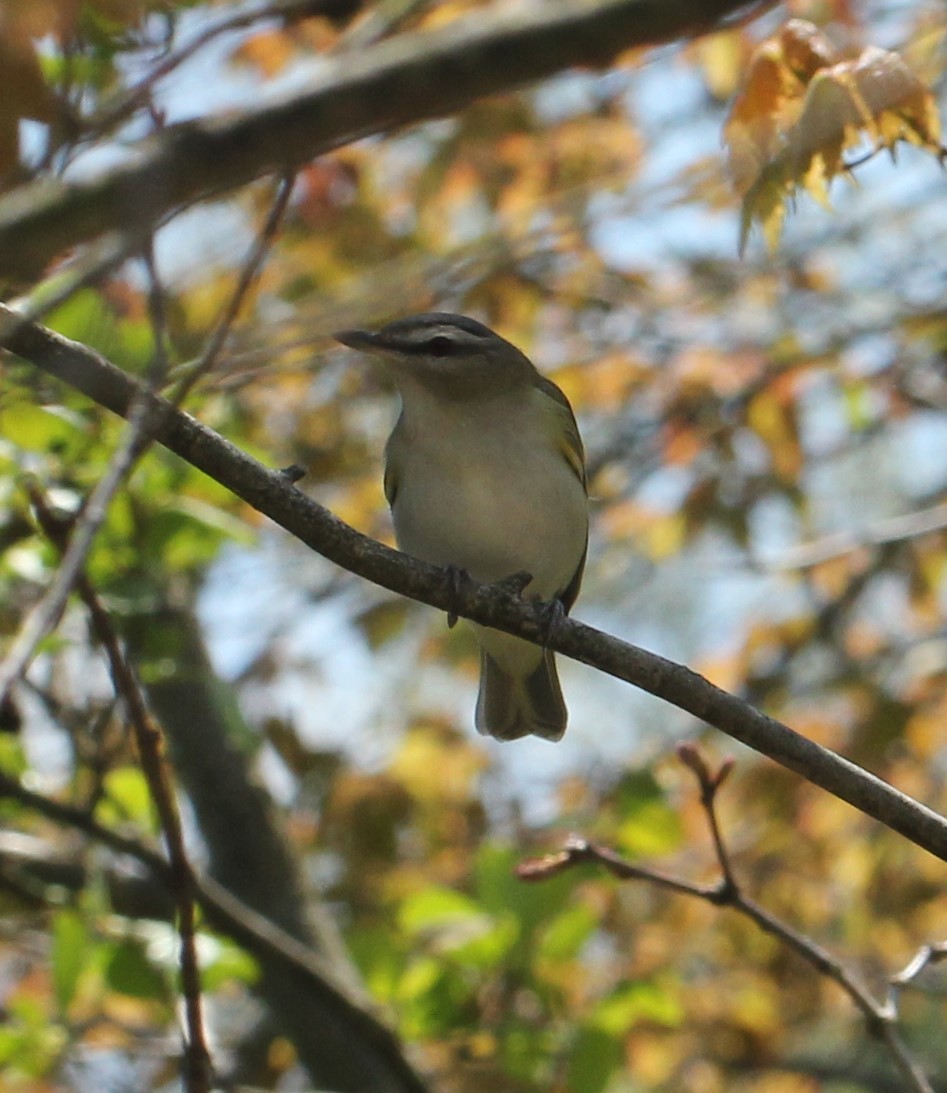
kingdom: Animalia
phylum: Chordata
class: Aves
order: Passeriformes
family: Vireonidae
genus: Vireo
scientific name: Vireo olivaceus
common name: Red-eyed vireo
